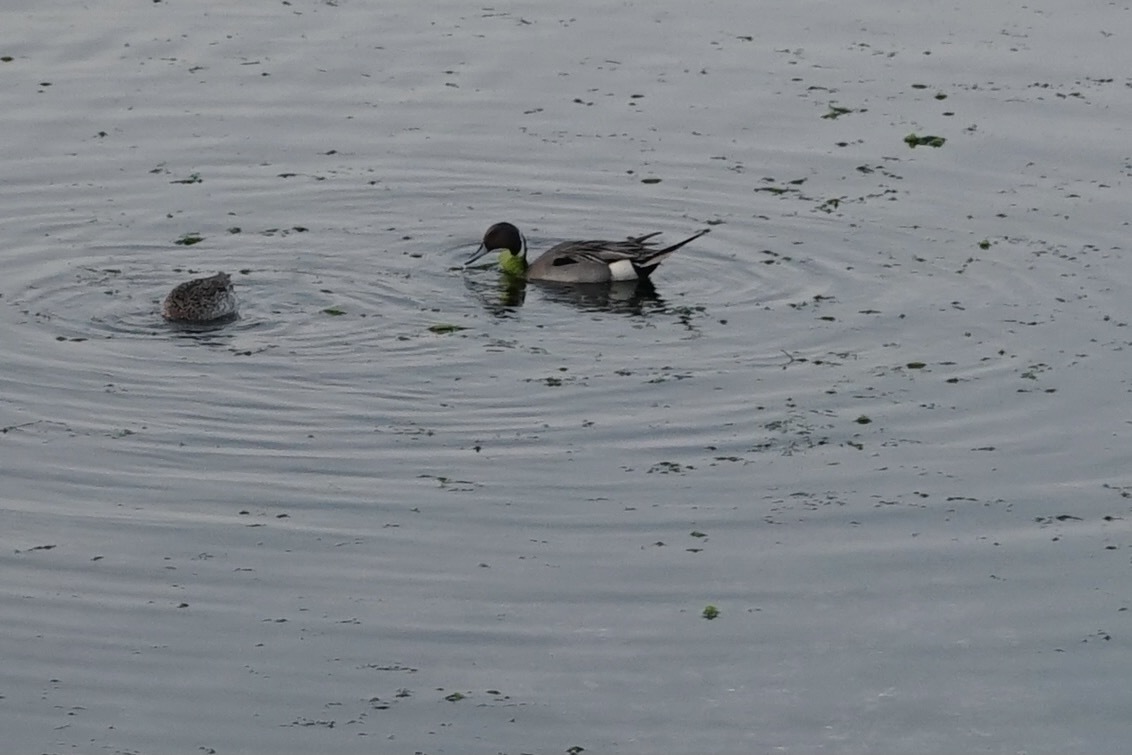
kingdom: Animalia
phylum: Chordata
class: Aves
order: Anseriformes
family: Anatidae
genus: Anas
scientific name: Anas acuta
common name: Northern pintail
